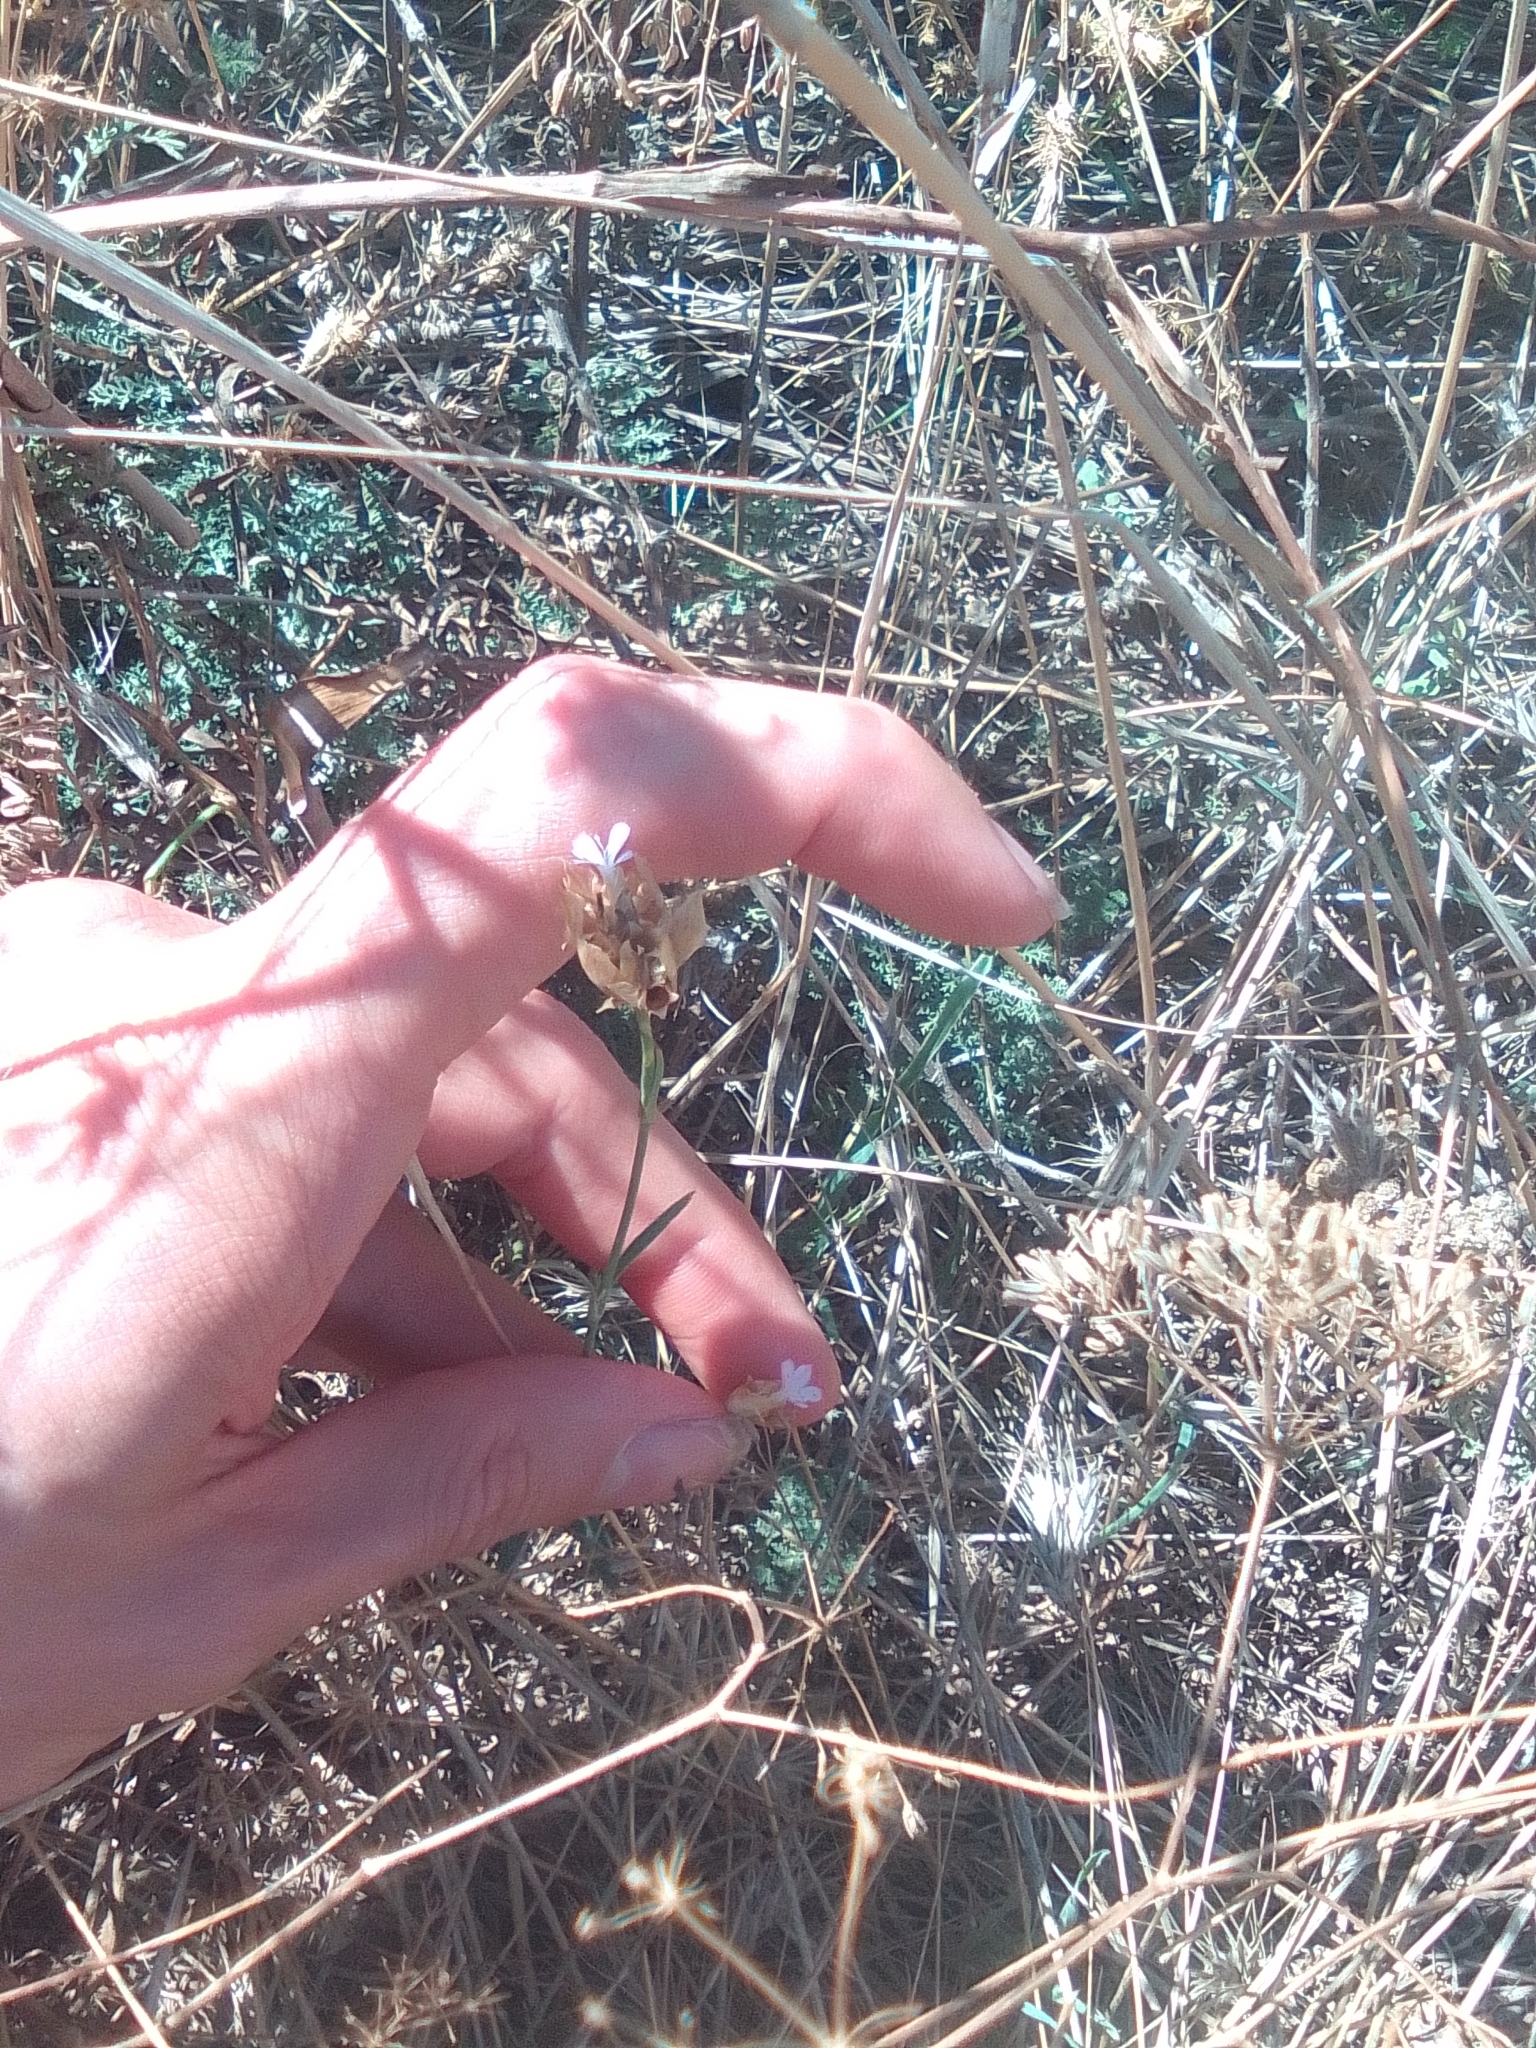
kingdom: Plantae
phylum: Tracheophyta
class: Magnoliopsida
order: Caryophyllales
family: Caryophyllaceae
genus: Petrorhagia
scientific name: Petrorhagia prolifera
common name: Proliferous pink
